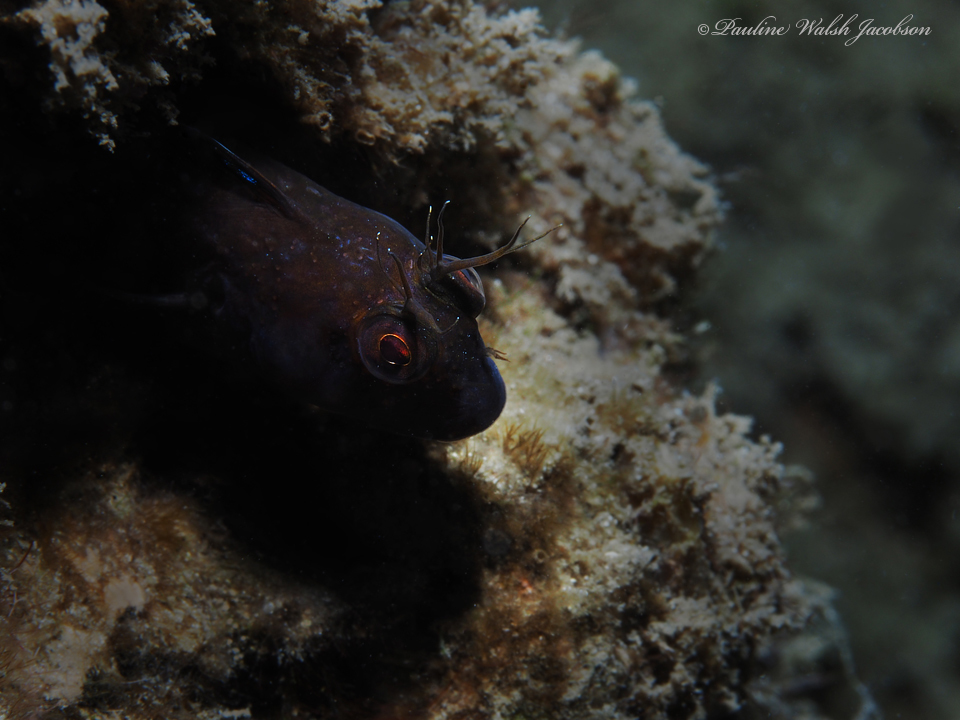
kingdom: Animalia
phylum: Chordata
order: Perciformes
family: Blenniidae
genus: Parablennius
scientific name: Parablennius marmoreus
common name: Seaweed blenny
